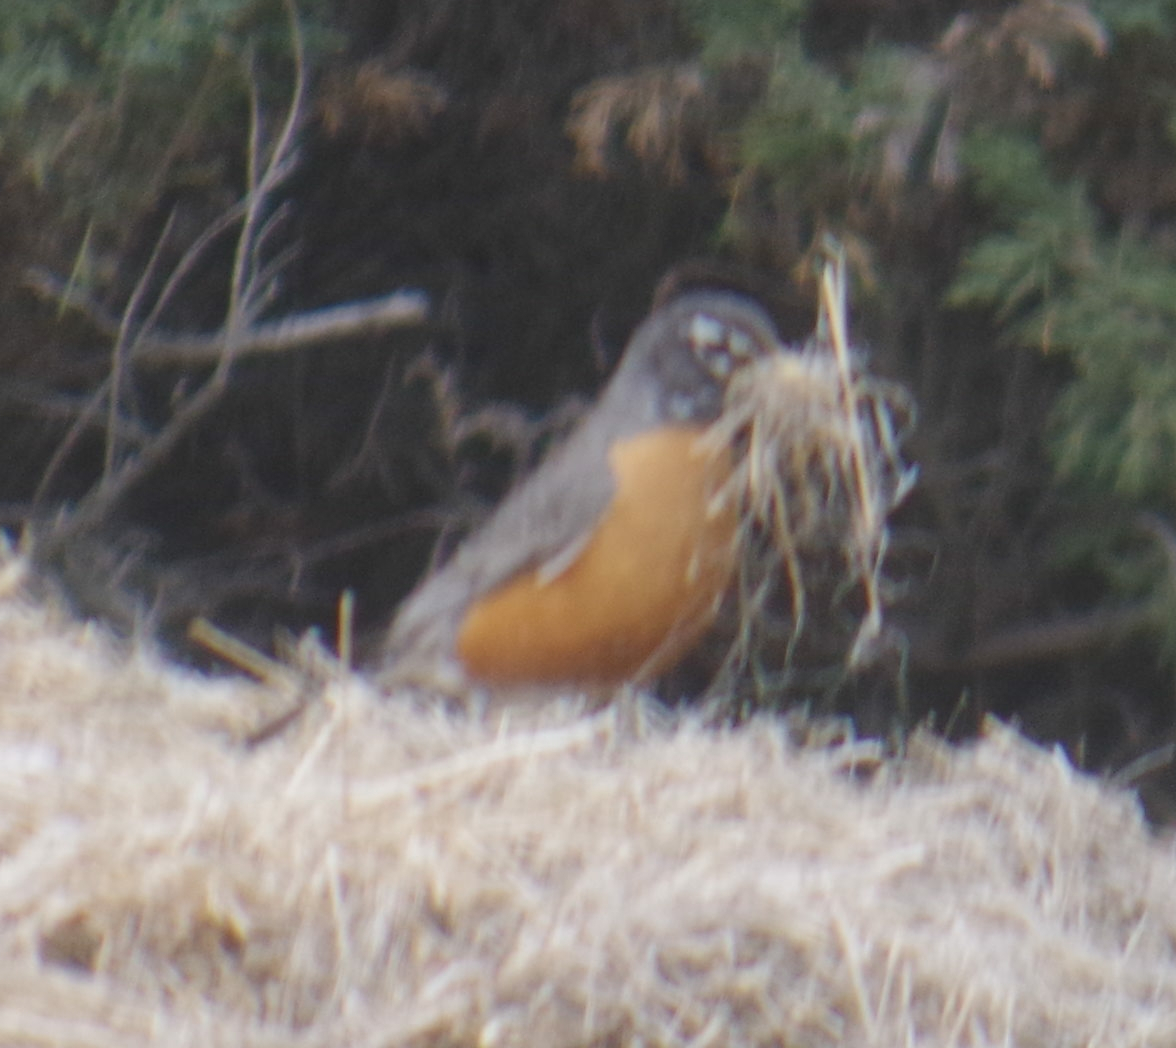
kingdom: Animalia
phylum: Chordata
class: Aves
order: Passeriformes
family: Turdidae
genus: Turdus
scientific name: Turdus migratorius
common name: American robin
